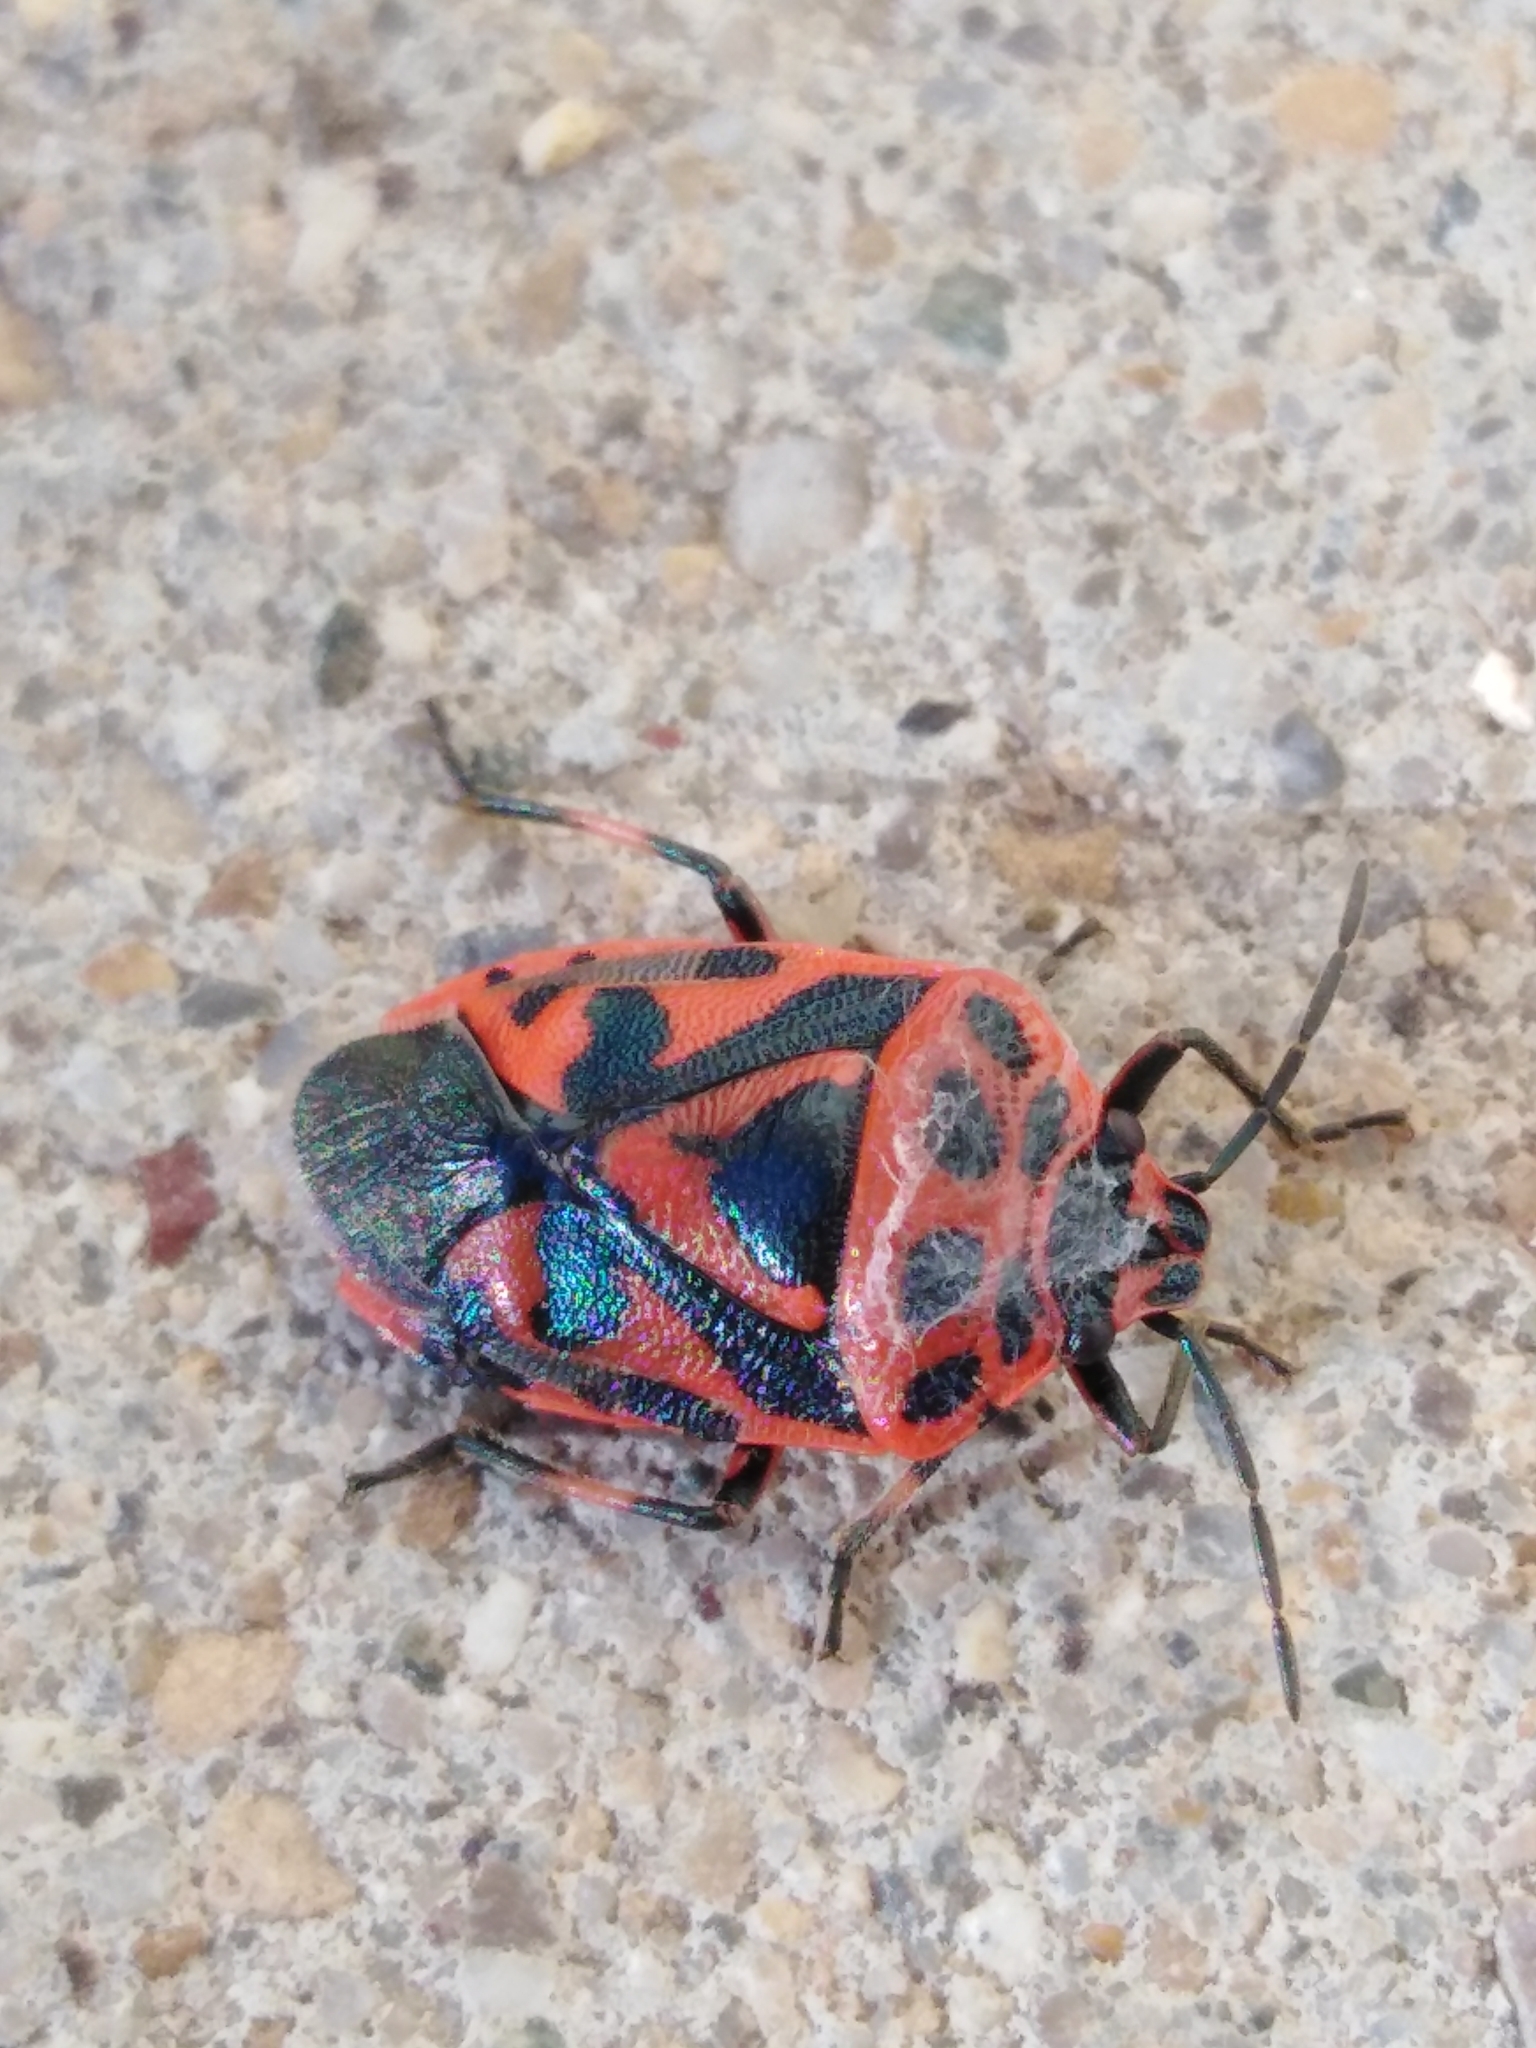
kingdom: Animalia
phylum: Arthropoda
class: Insecta
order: Hemiptera
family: Pentatomidae
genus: Eurydema
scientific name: Eurydema ornata
